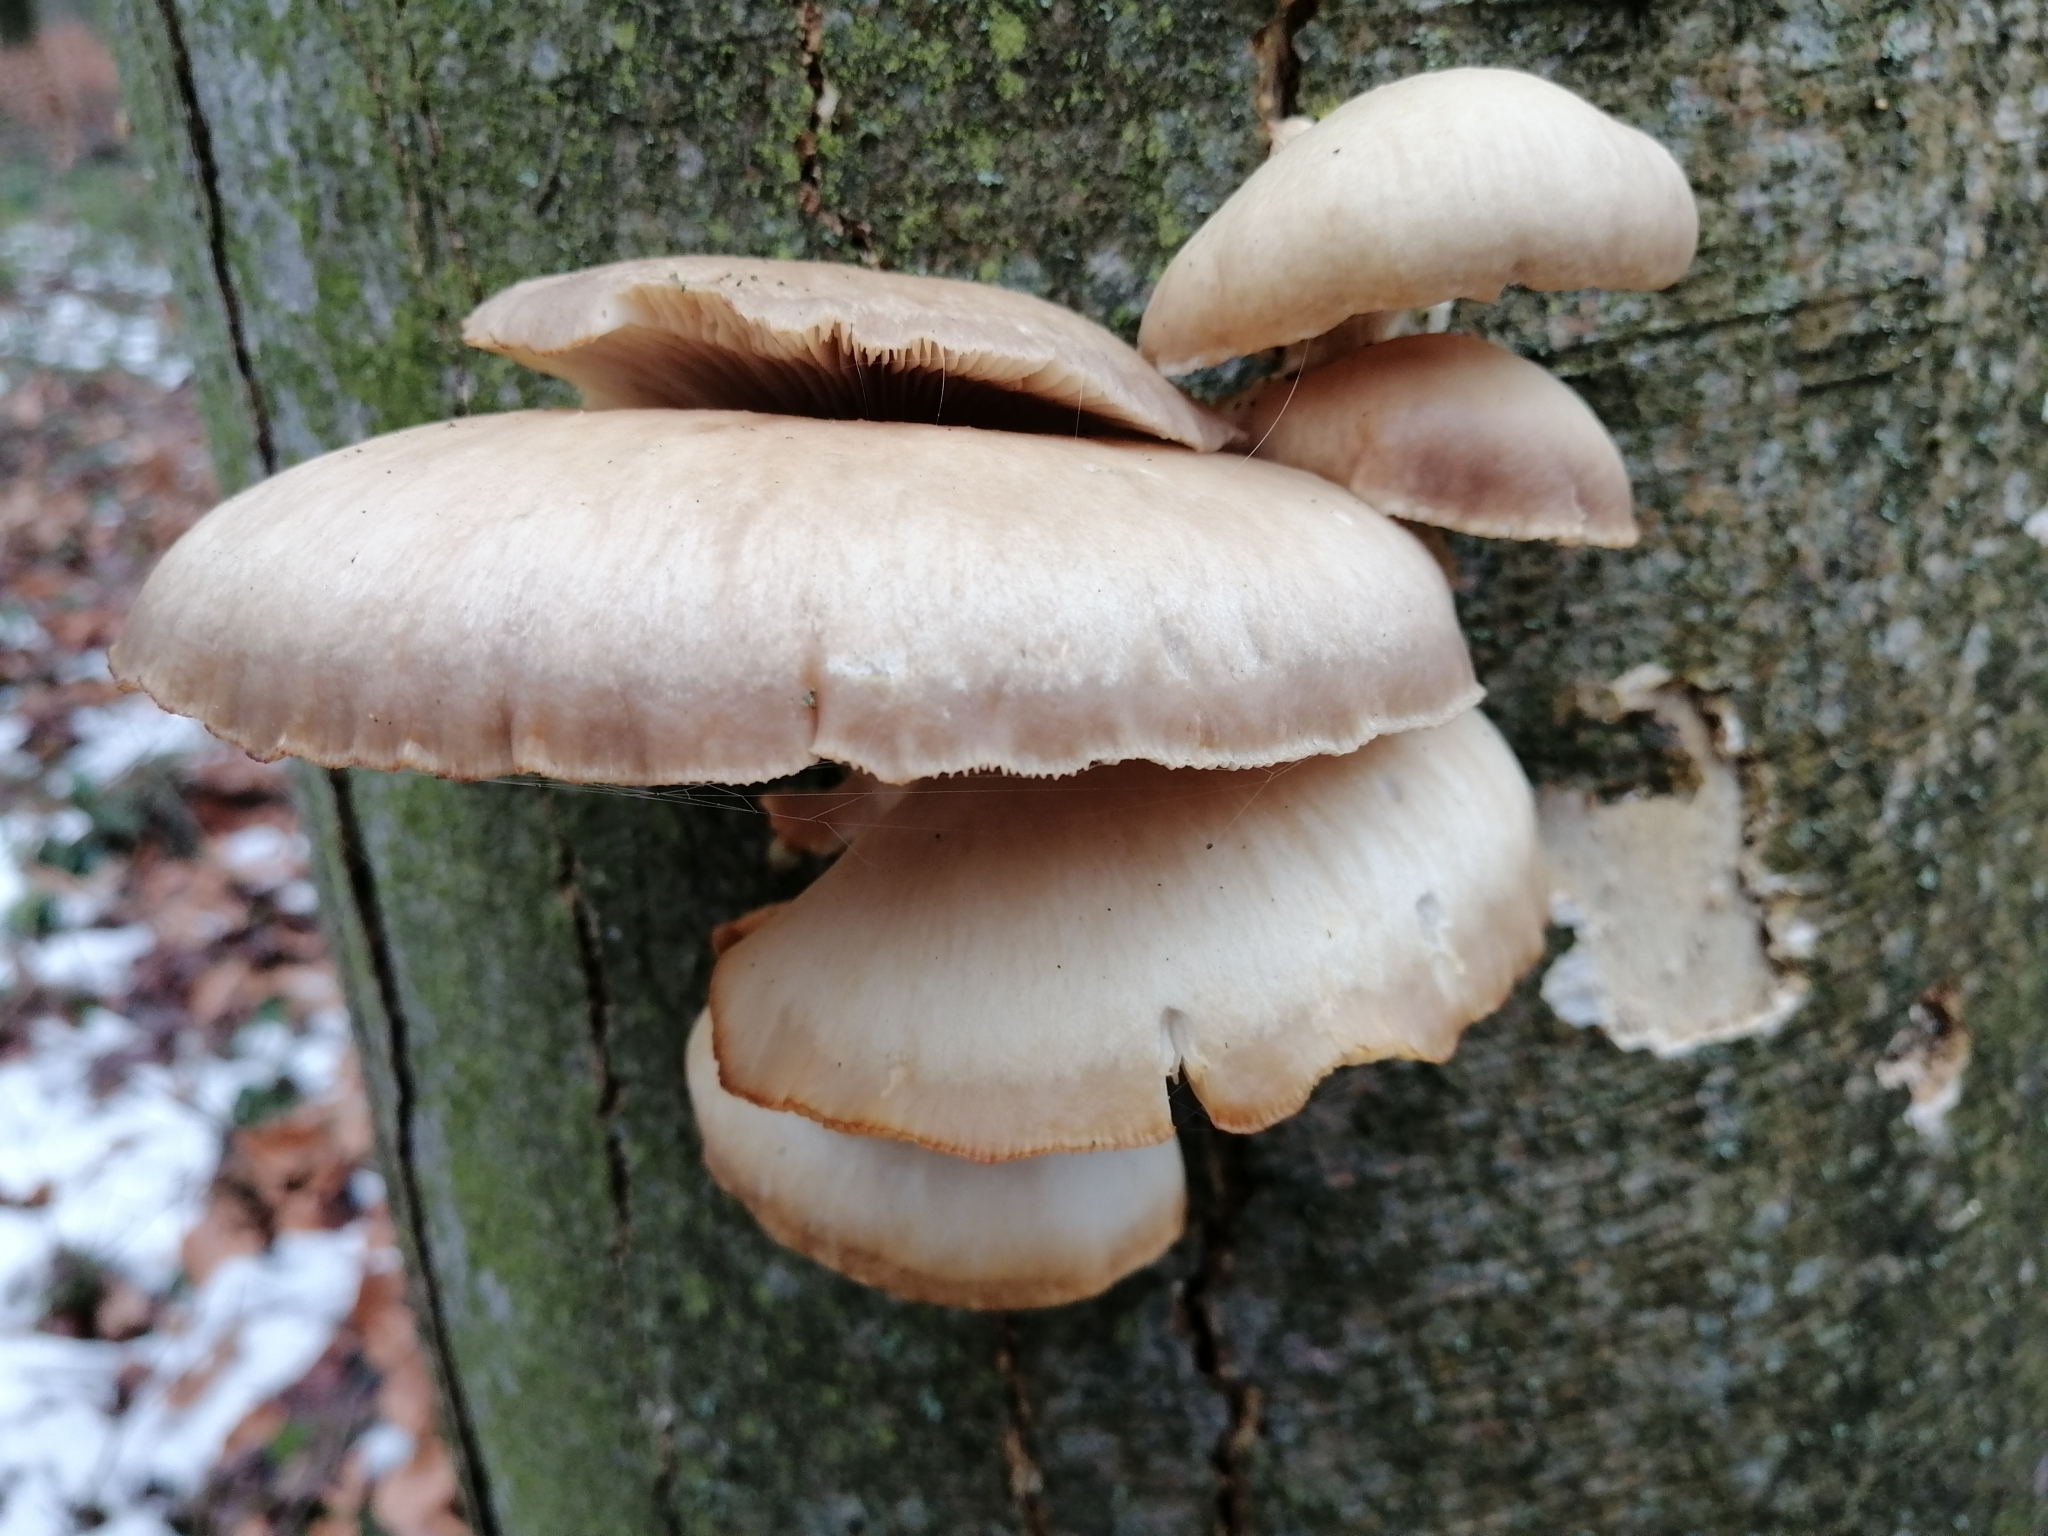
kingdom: Fungi
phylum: Basidiomycota
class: Agaricomycetes
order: Agaricales
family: Pleurotaceae
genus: Pleurotus
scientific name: Pleurotus ostreatus
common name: Oyster mushroom
